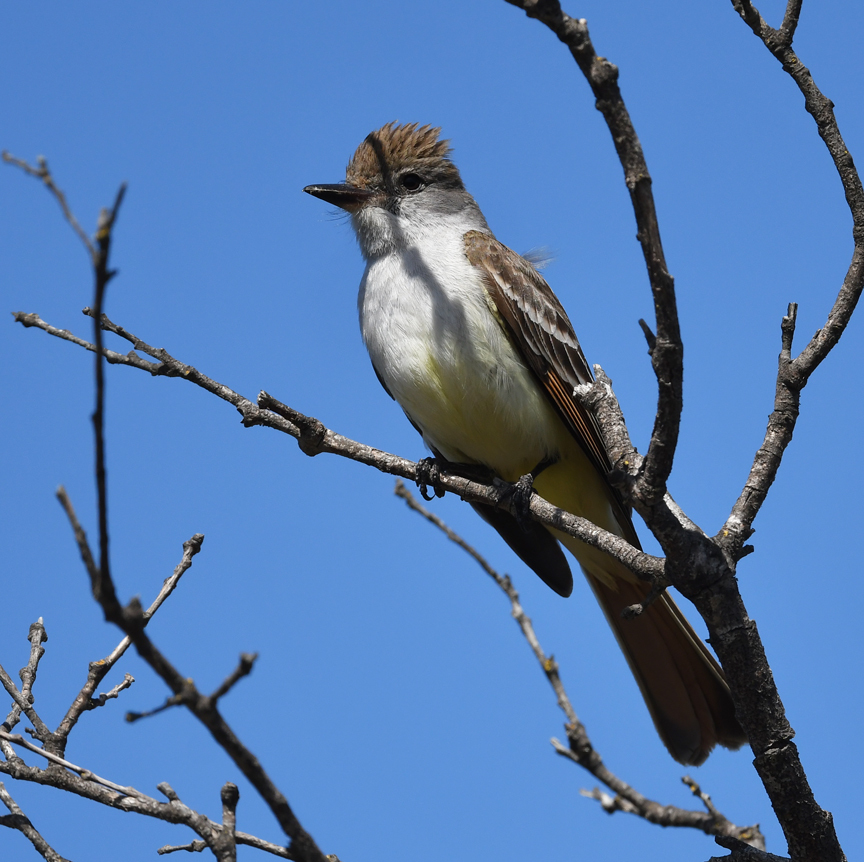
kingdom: Animalia
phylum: Chordata
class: Aves
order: Passeriformes
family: Tyrannidae
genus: Myiarchus
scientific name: Myiarchus cinerascens
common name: Ash-throated flycatcher
